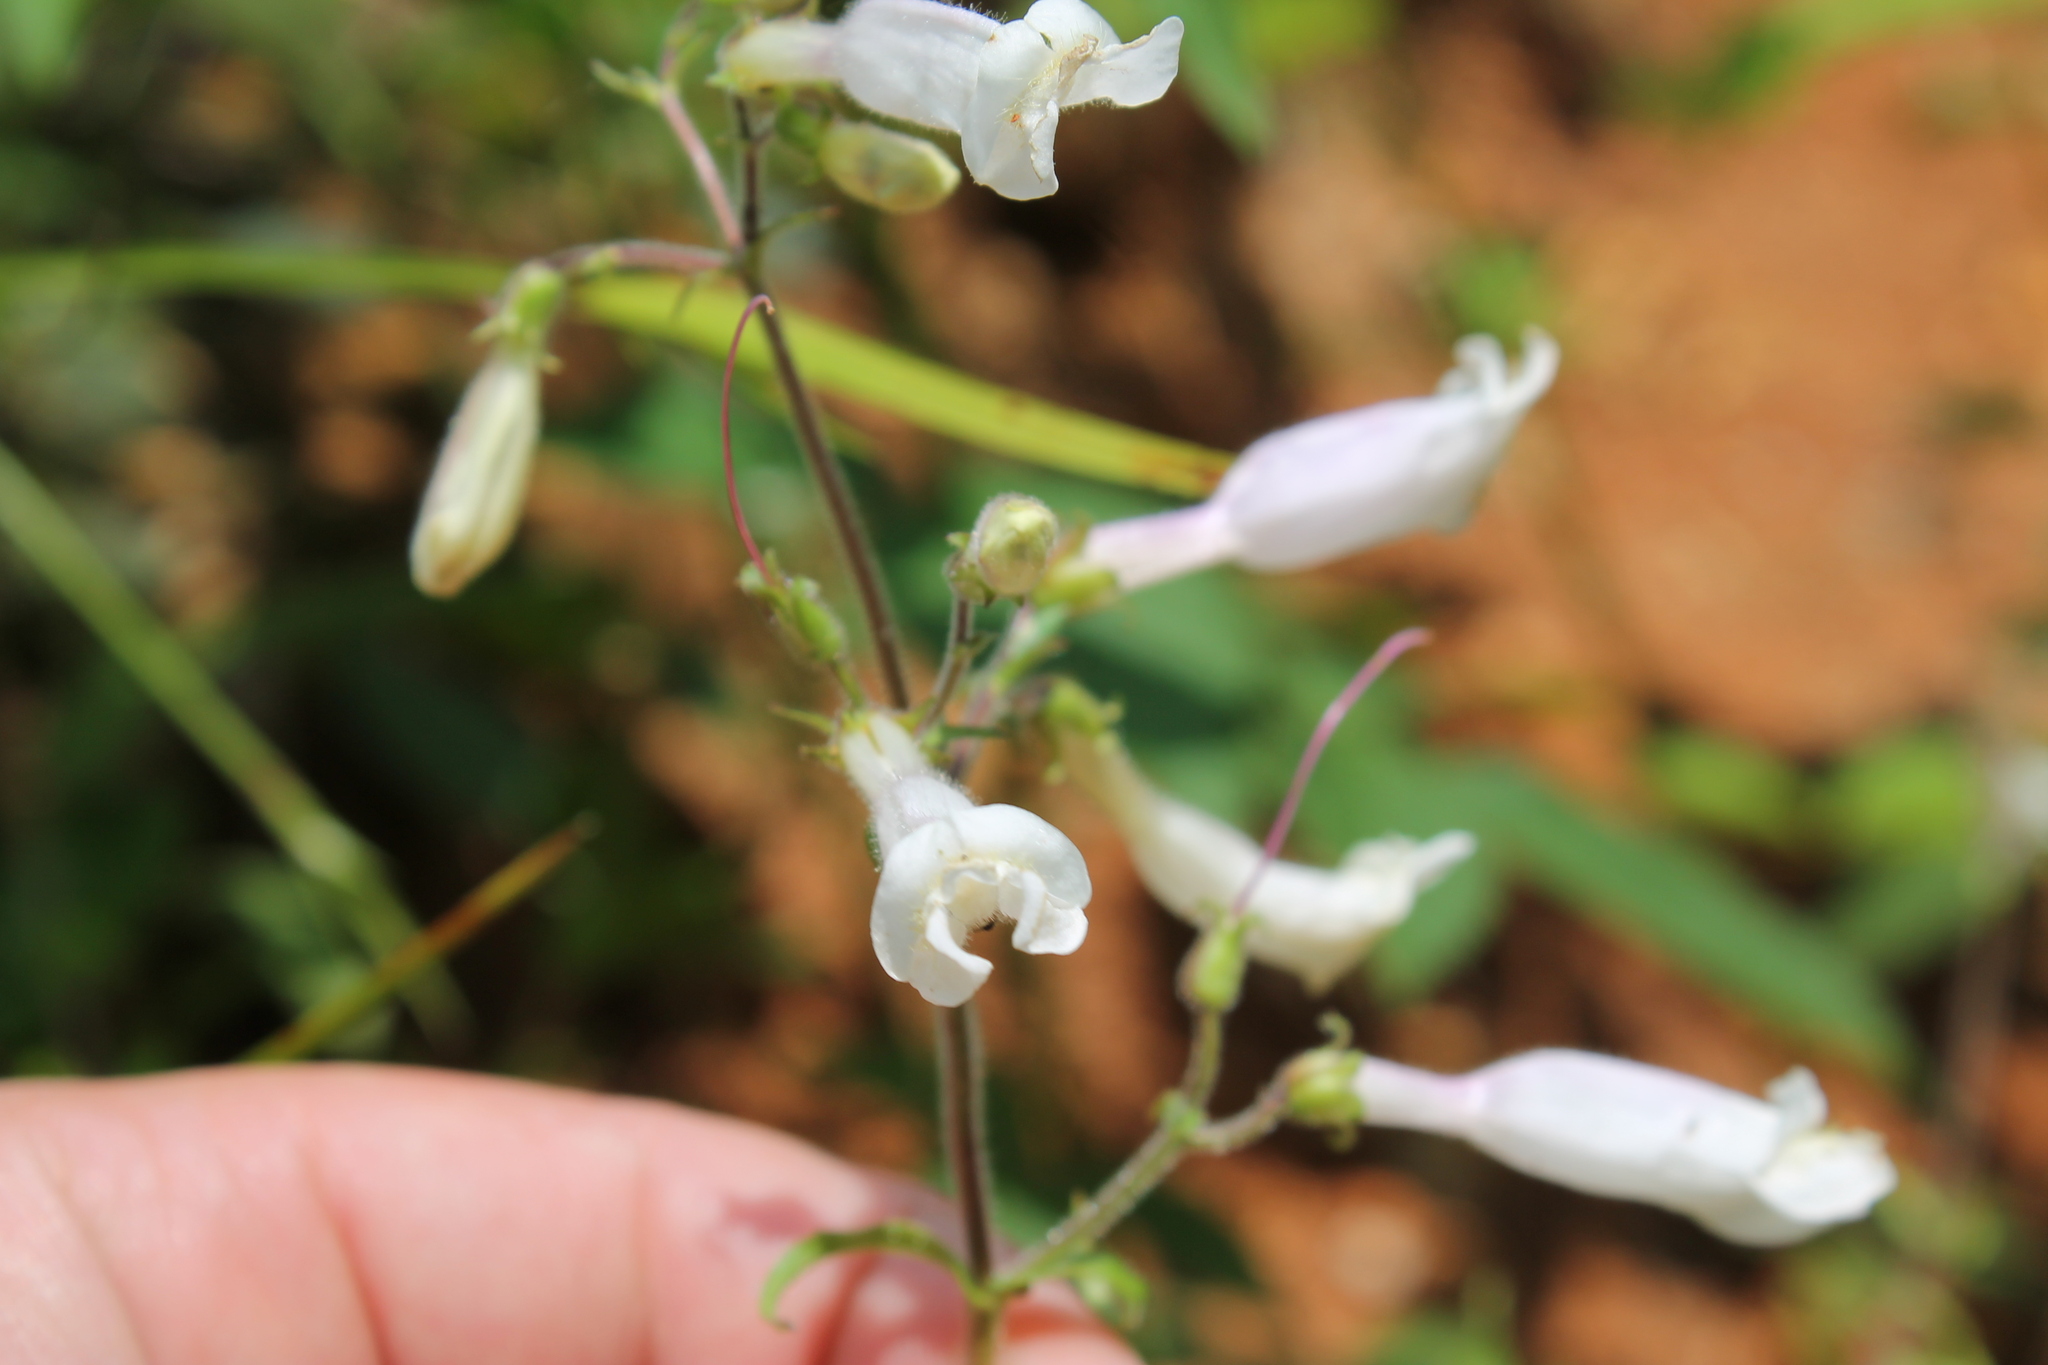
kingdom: Plantae
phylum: Tracheophyta
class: Magnoliopsida
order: Lamiales
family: Plantaginaceae
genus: Penstemon
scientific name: Penstemon tenuiflorus
